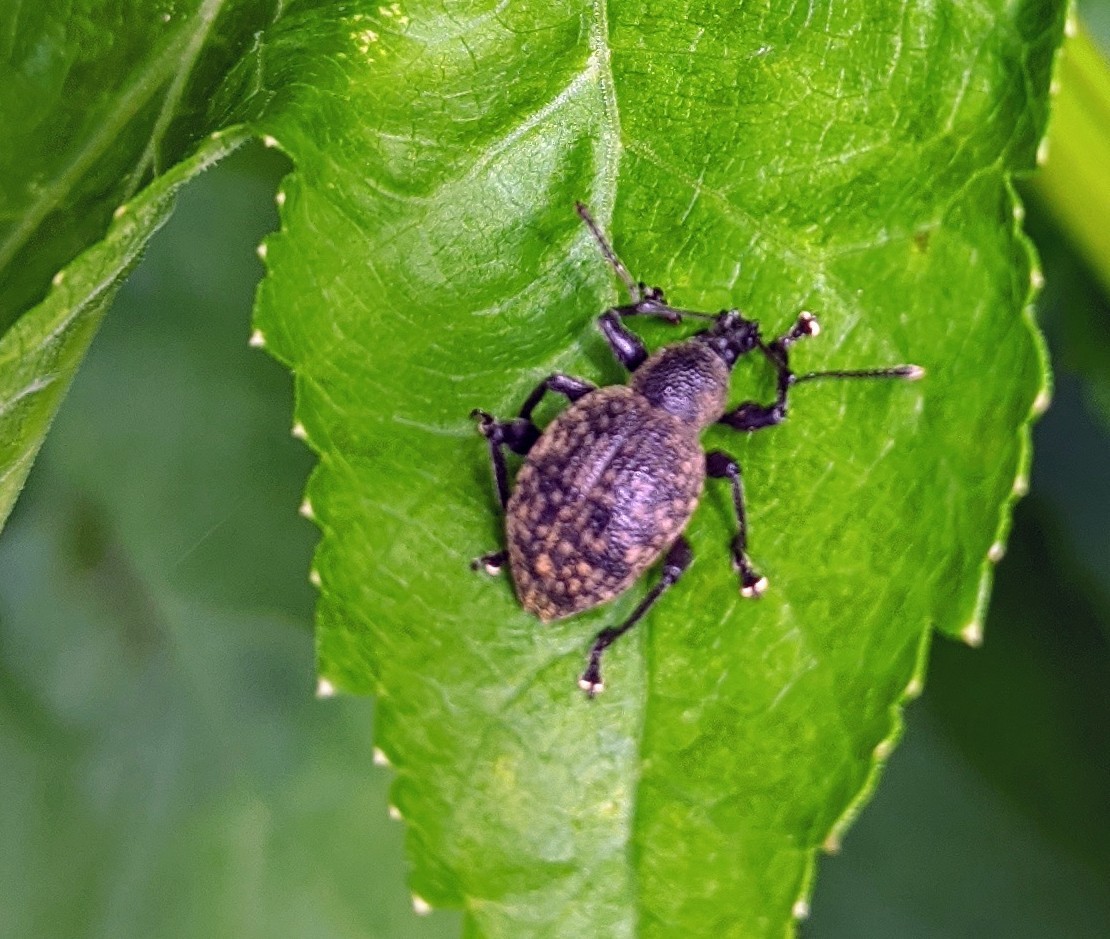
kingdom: Animalia
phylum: Arthropoda
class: Insecta
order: Coleoptera
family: Curculionidae
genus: Otiorhynchus
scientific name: Otiorhynchus armadillo
